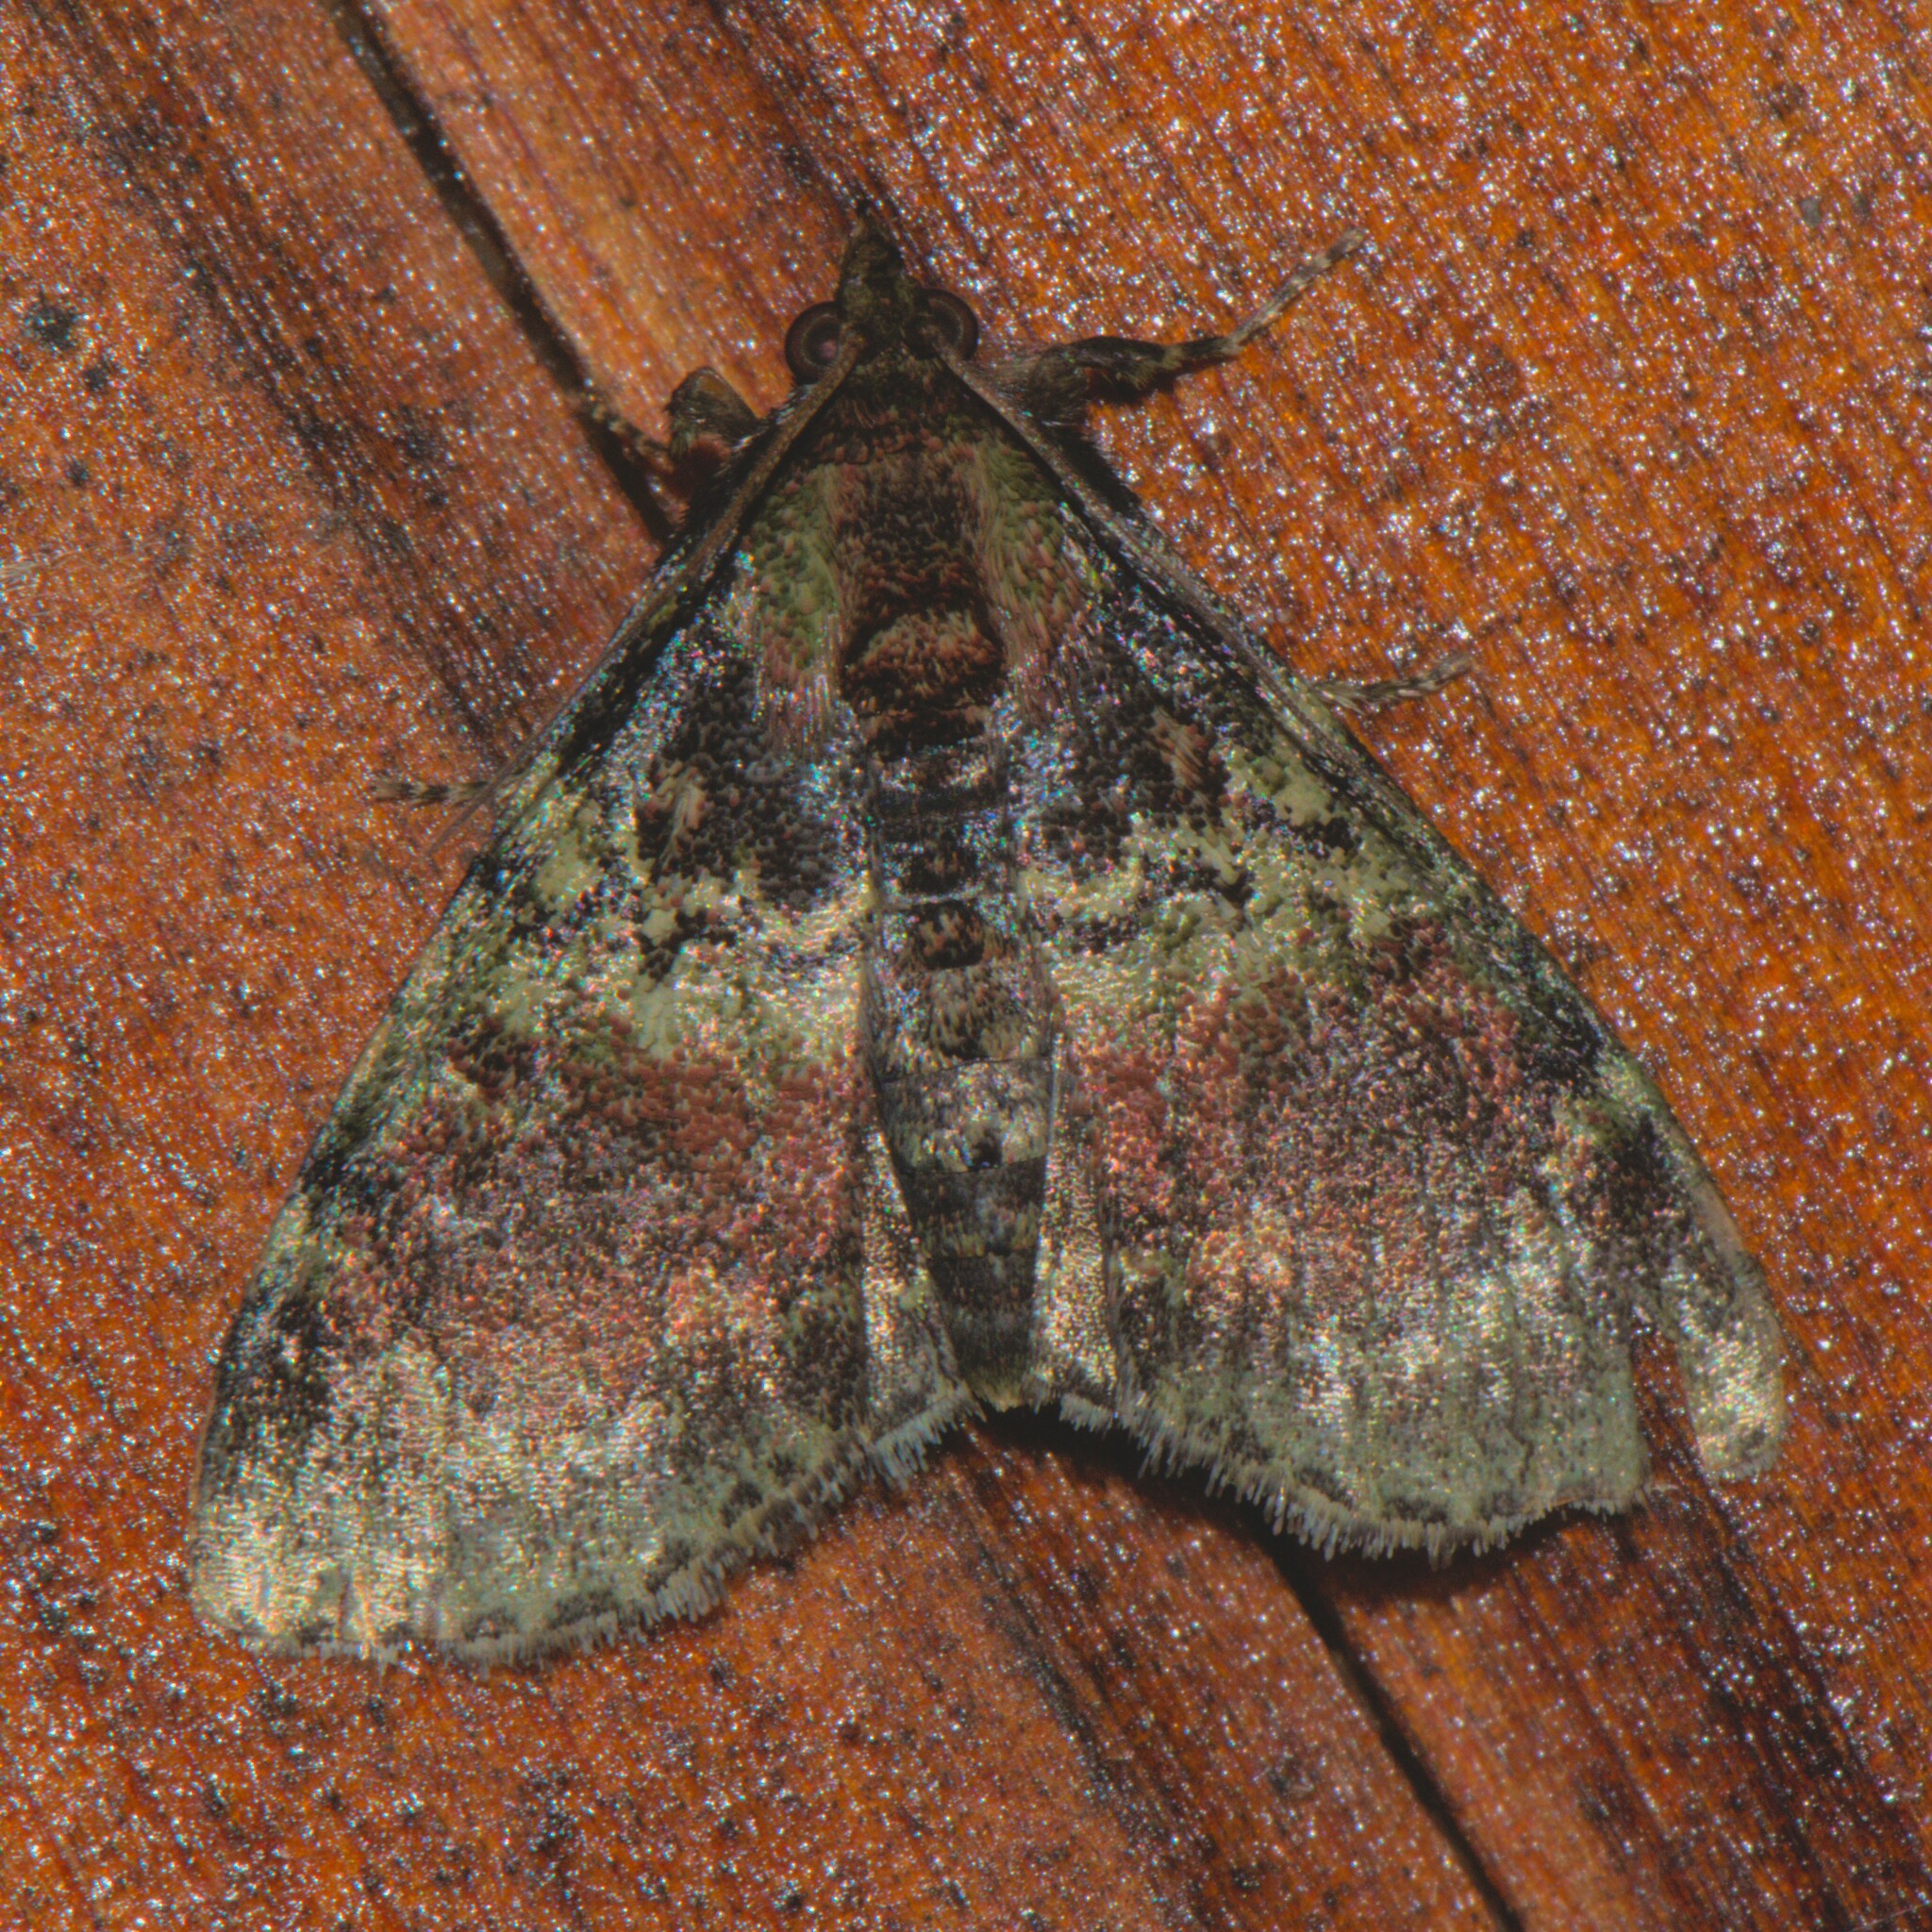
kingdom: Animalia
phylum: Arthropoda
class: Insecta
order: Lepidoptera
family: Pyralidae
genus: Locastra
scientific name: Locastra viridis
